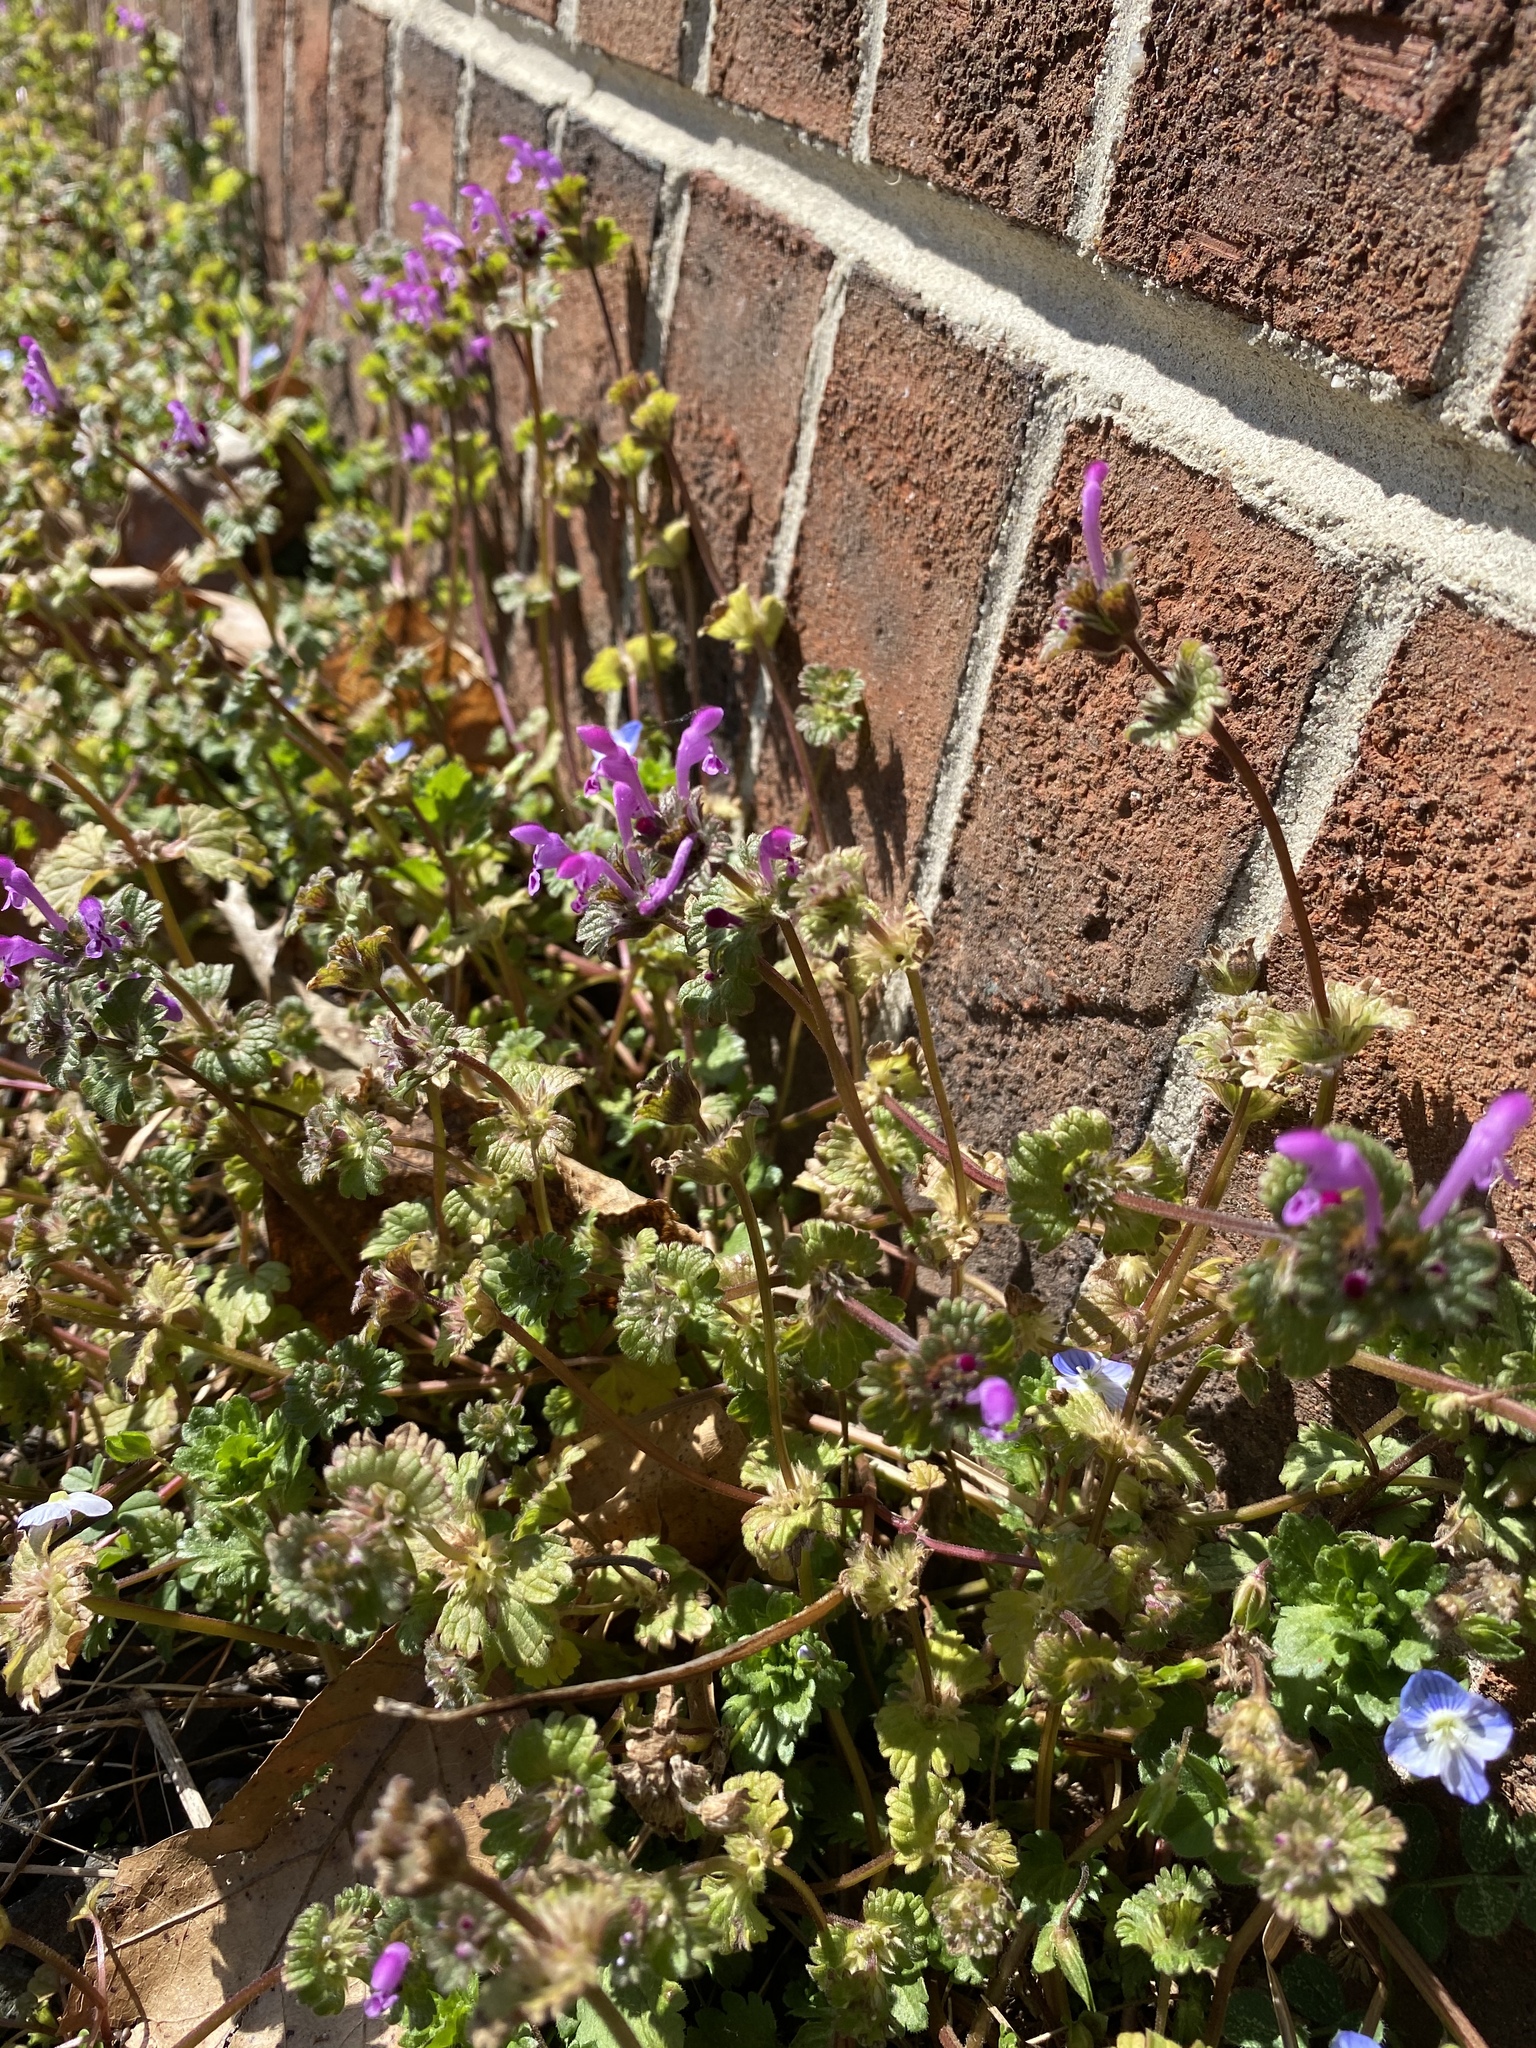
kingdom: Plantae
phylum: Tracheophyta
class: Magnoliopsida
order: Lamiales
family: Lamiaceae
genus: Lamium
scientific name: Lamium amplexicaule
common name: Henbit dead-nettle
